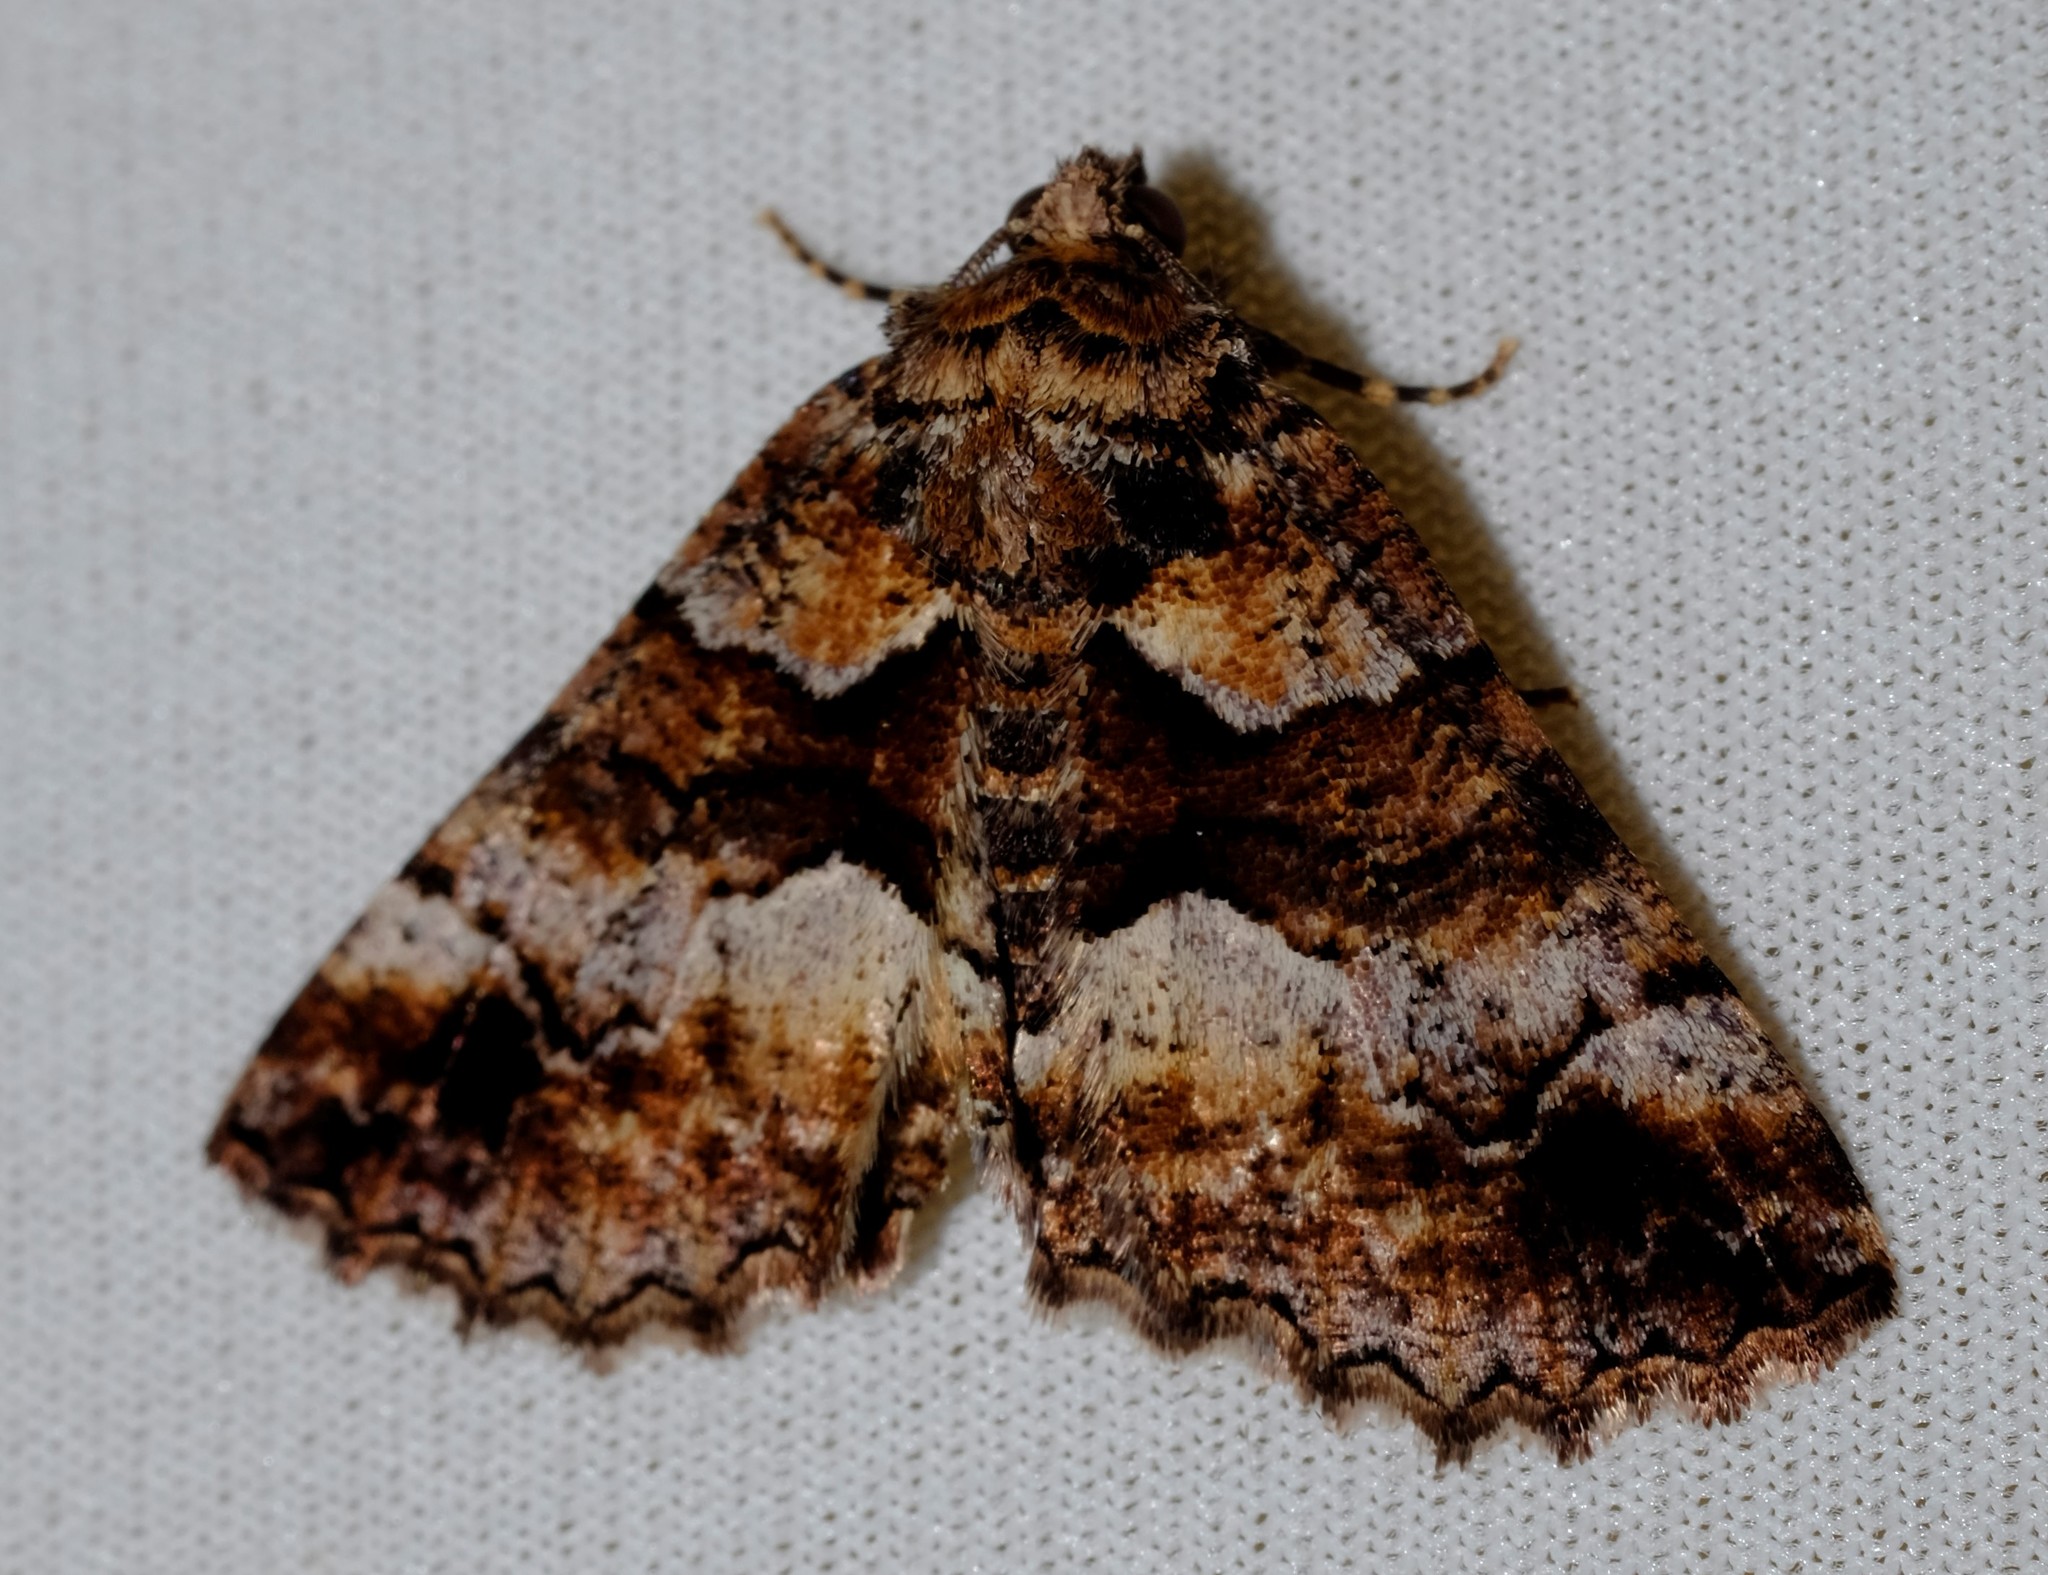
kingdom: Animalia
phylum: Arthropoda
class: Insecta
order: Lepidoptera
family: Geometridae
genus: Gastrina
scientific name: Gastrina cristaria
